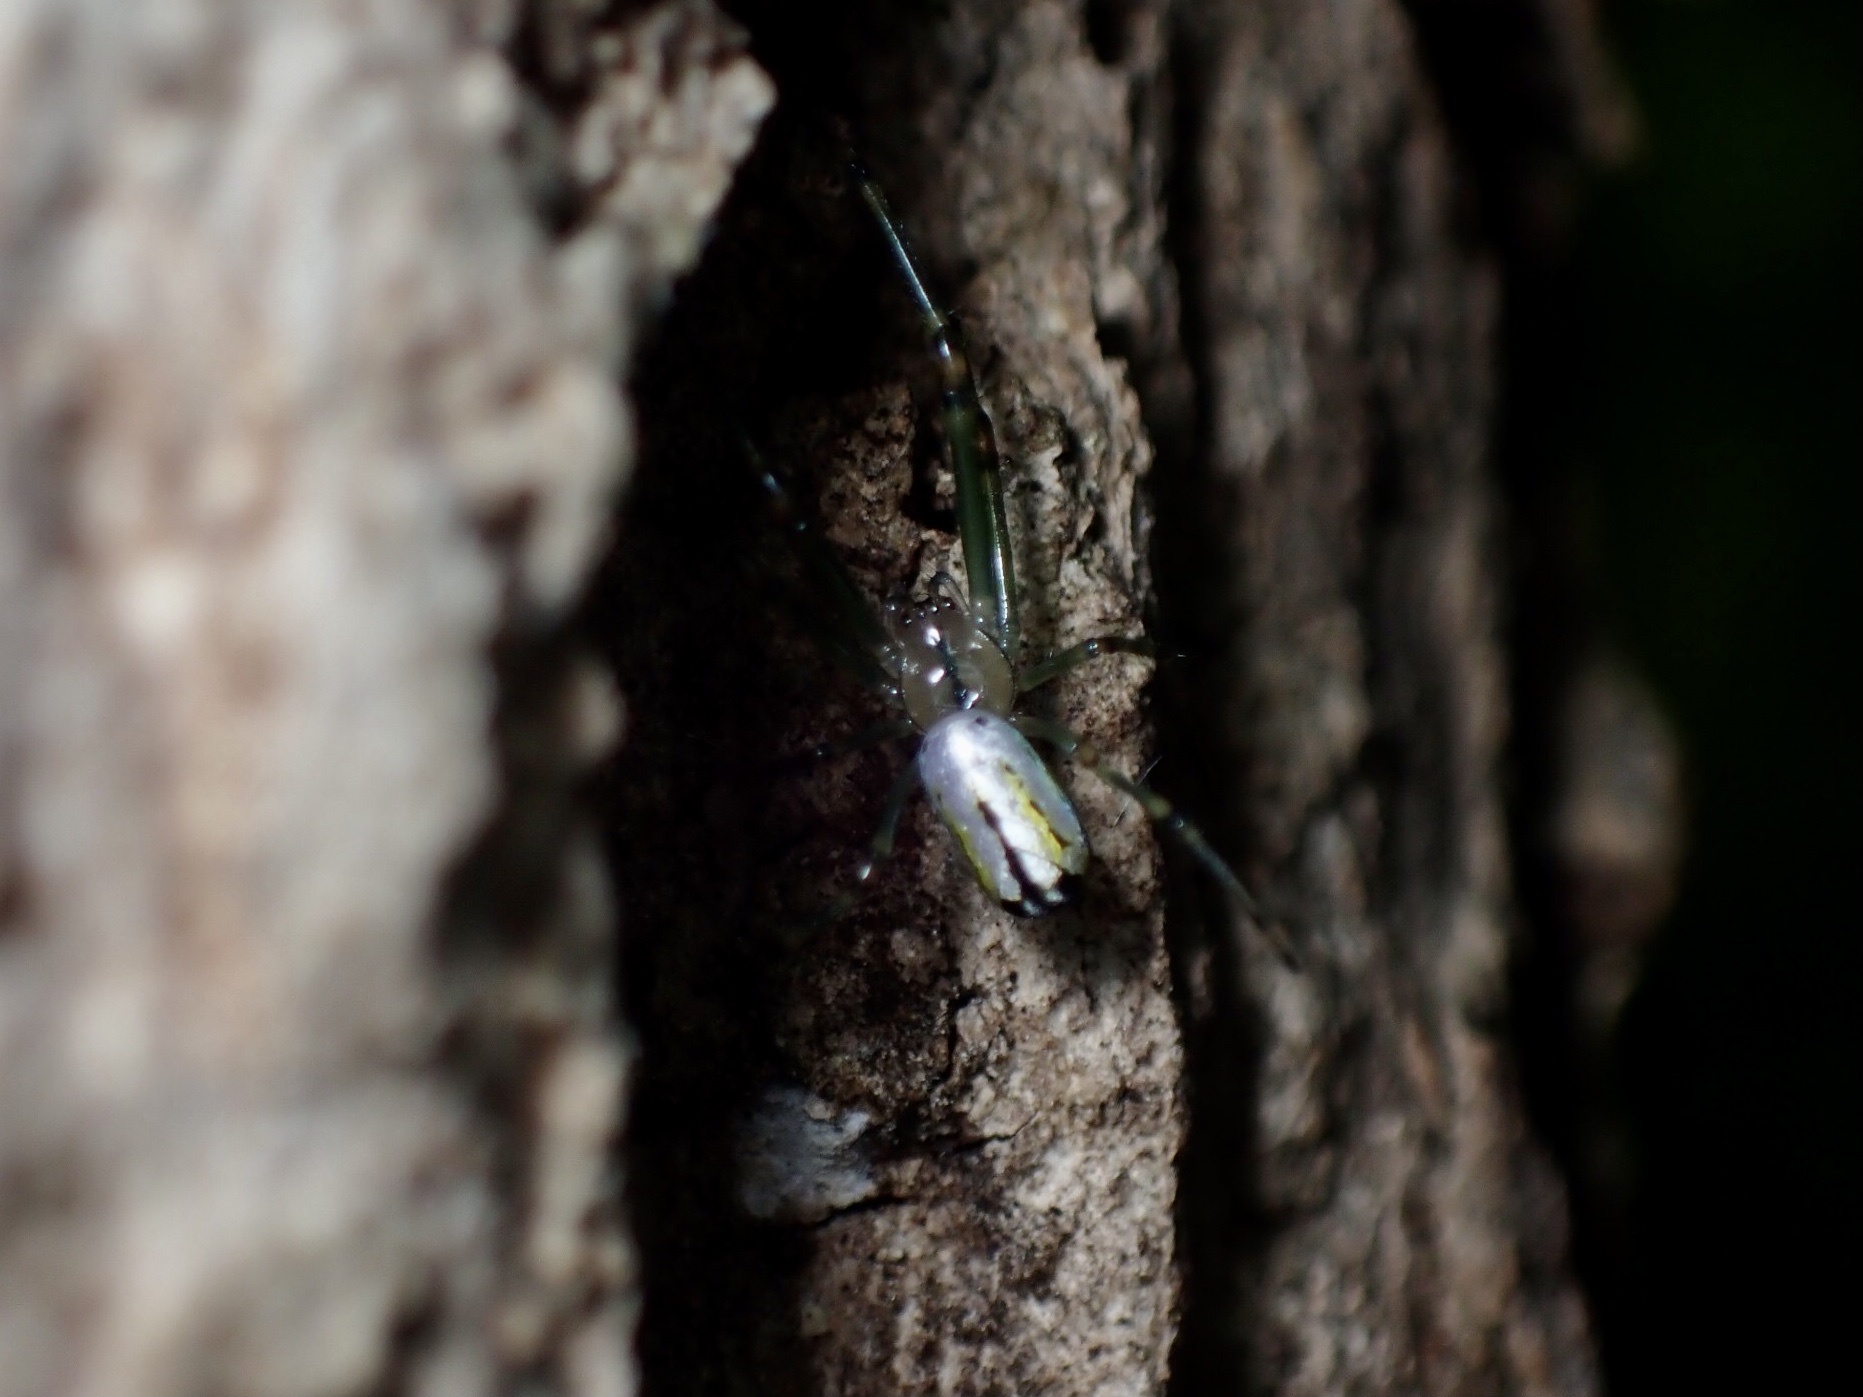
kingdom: Animalia
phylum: Arthropoda
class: Arachnida
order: Araneae
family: Tetragnathidae
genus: Leucauge
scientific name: Leucauge venusta
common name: Longjawed orb weavers
